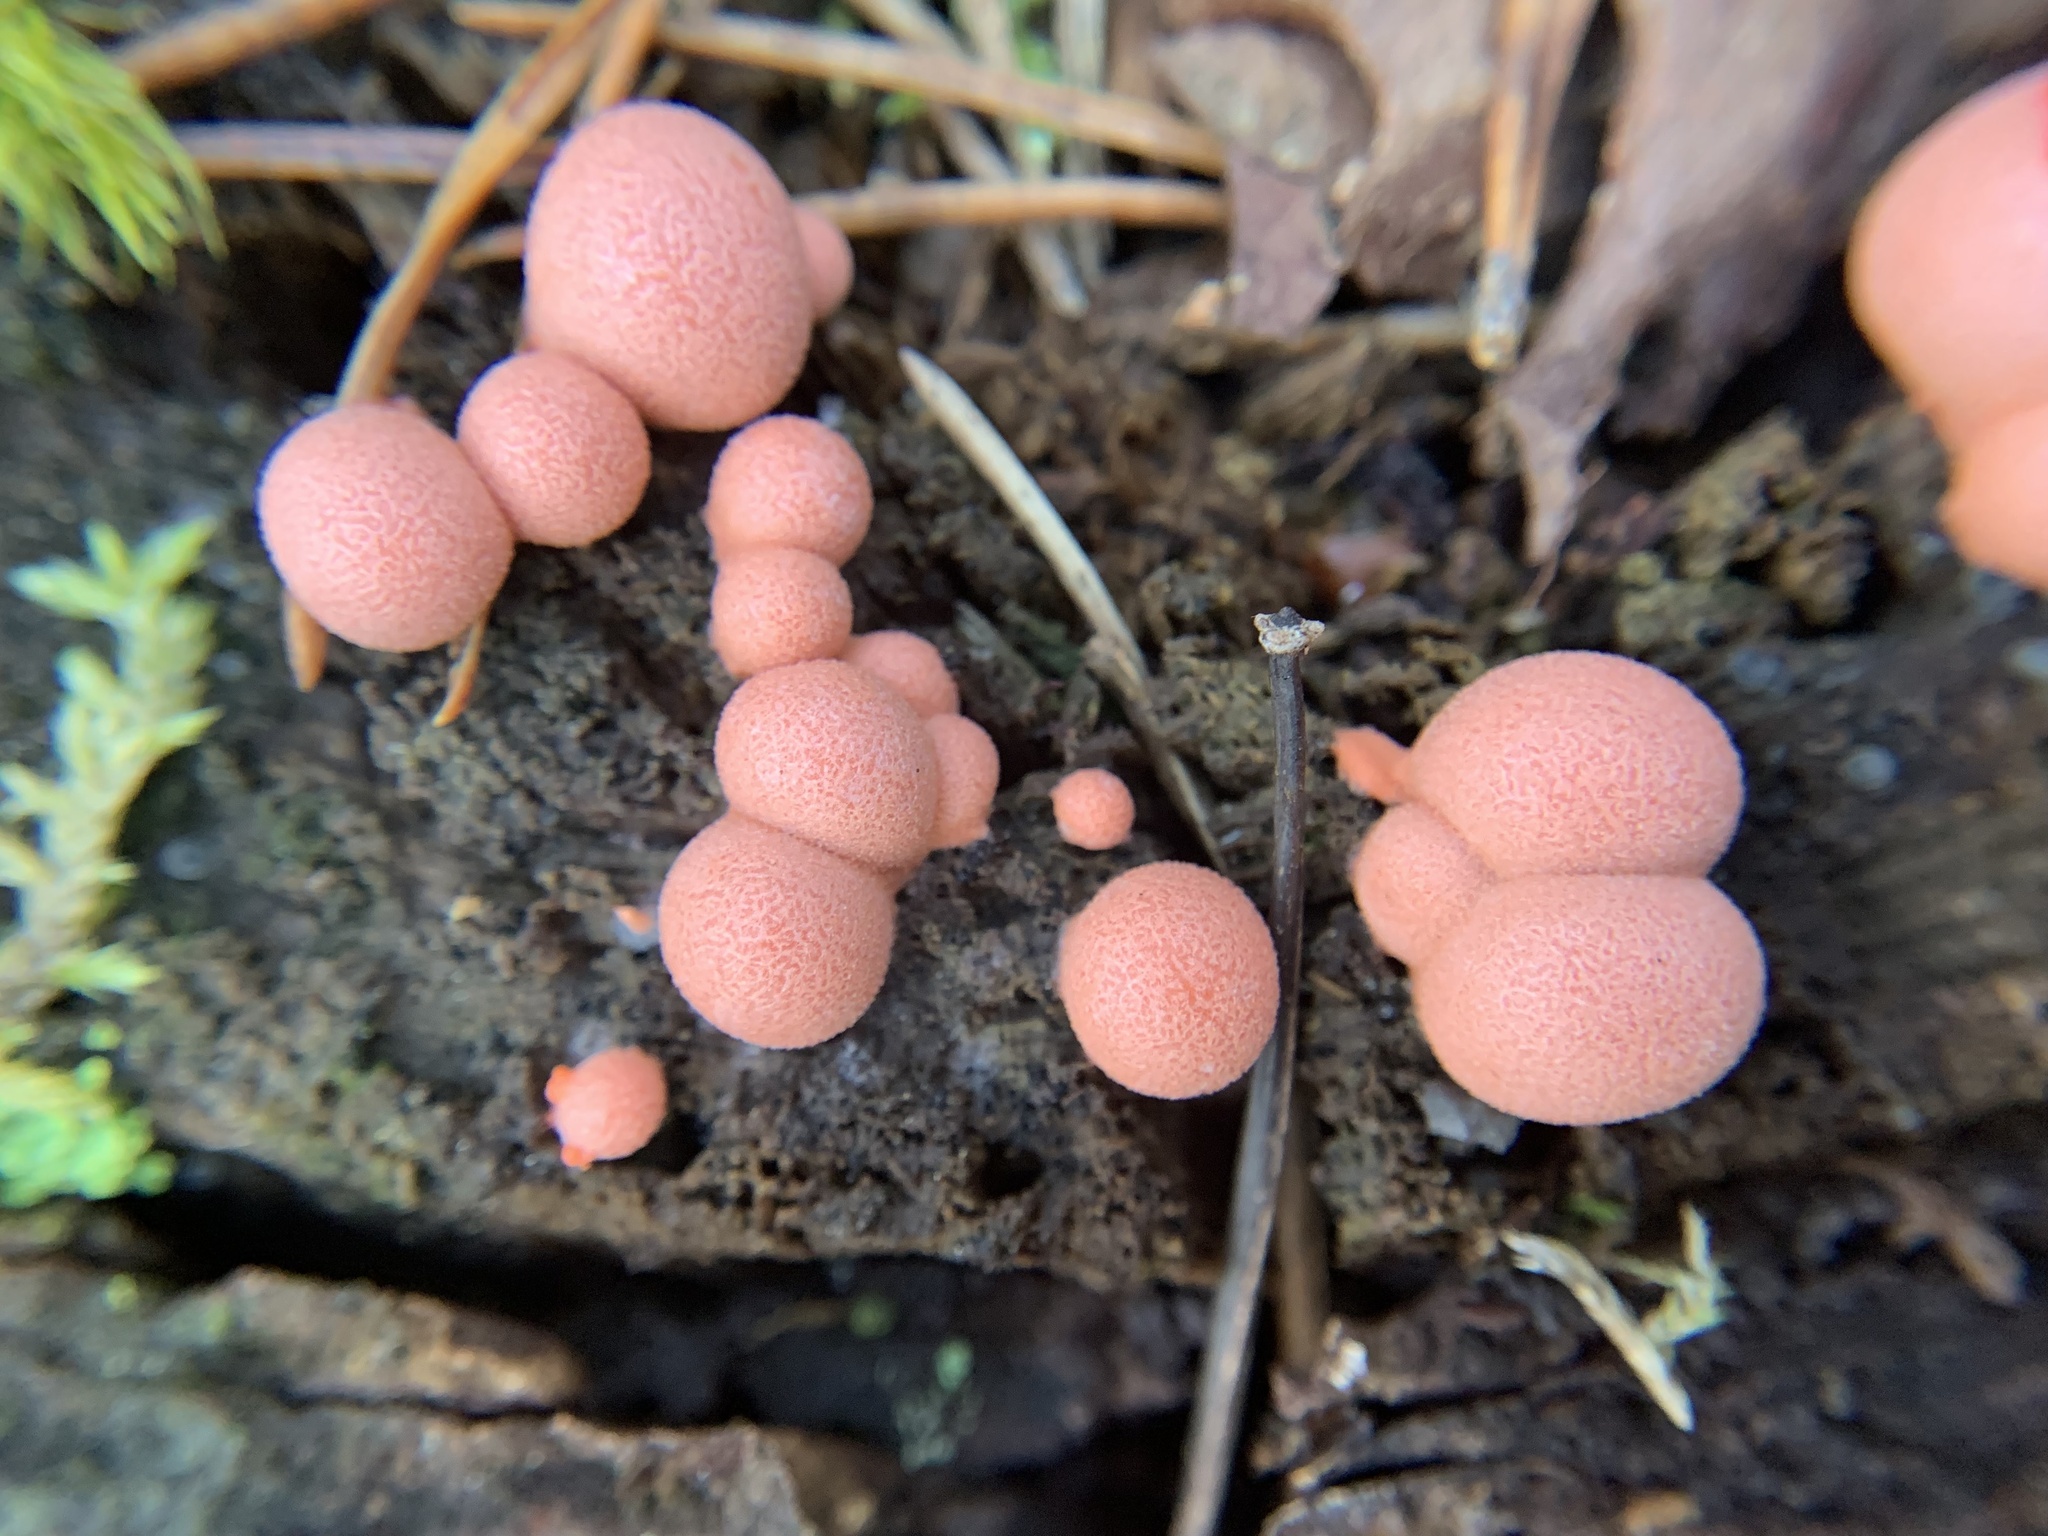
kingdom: Protozoa
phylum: Mycetozoa
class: Myxomycetes
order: Cribrariales
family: Tubiferaceae
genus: Lycogala
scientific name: Lycogala epidendrum
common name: Wolf's milk
